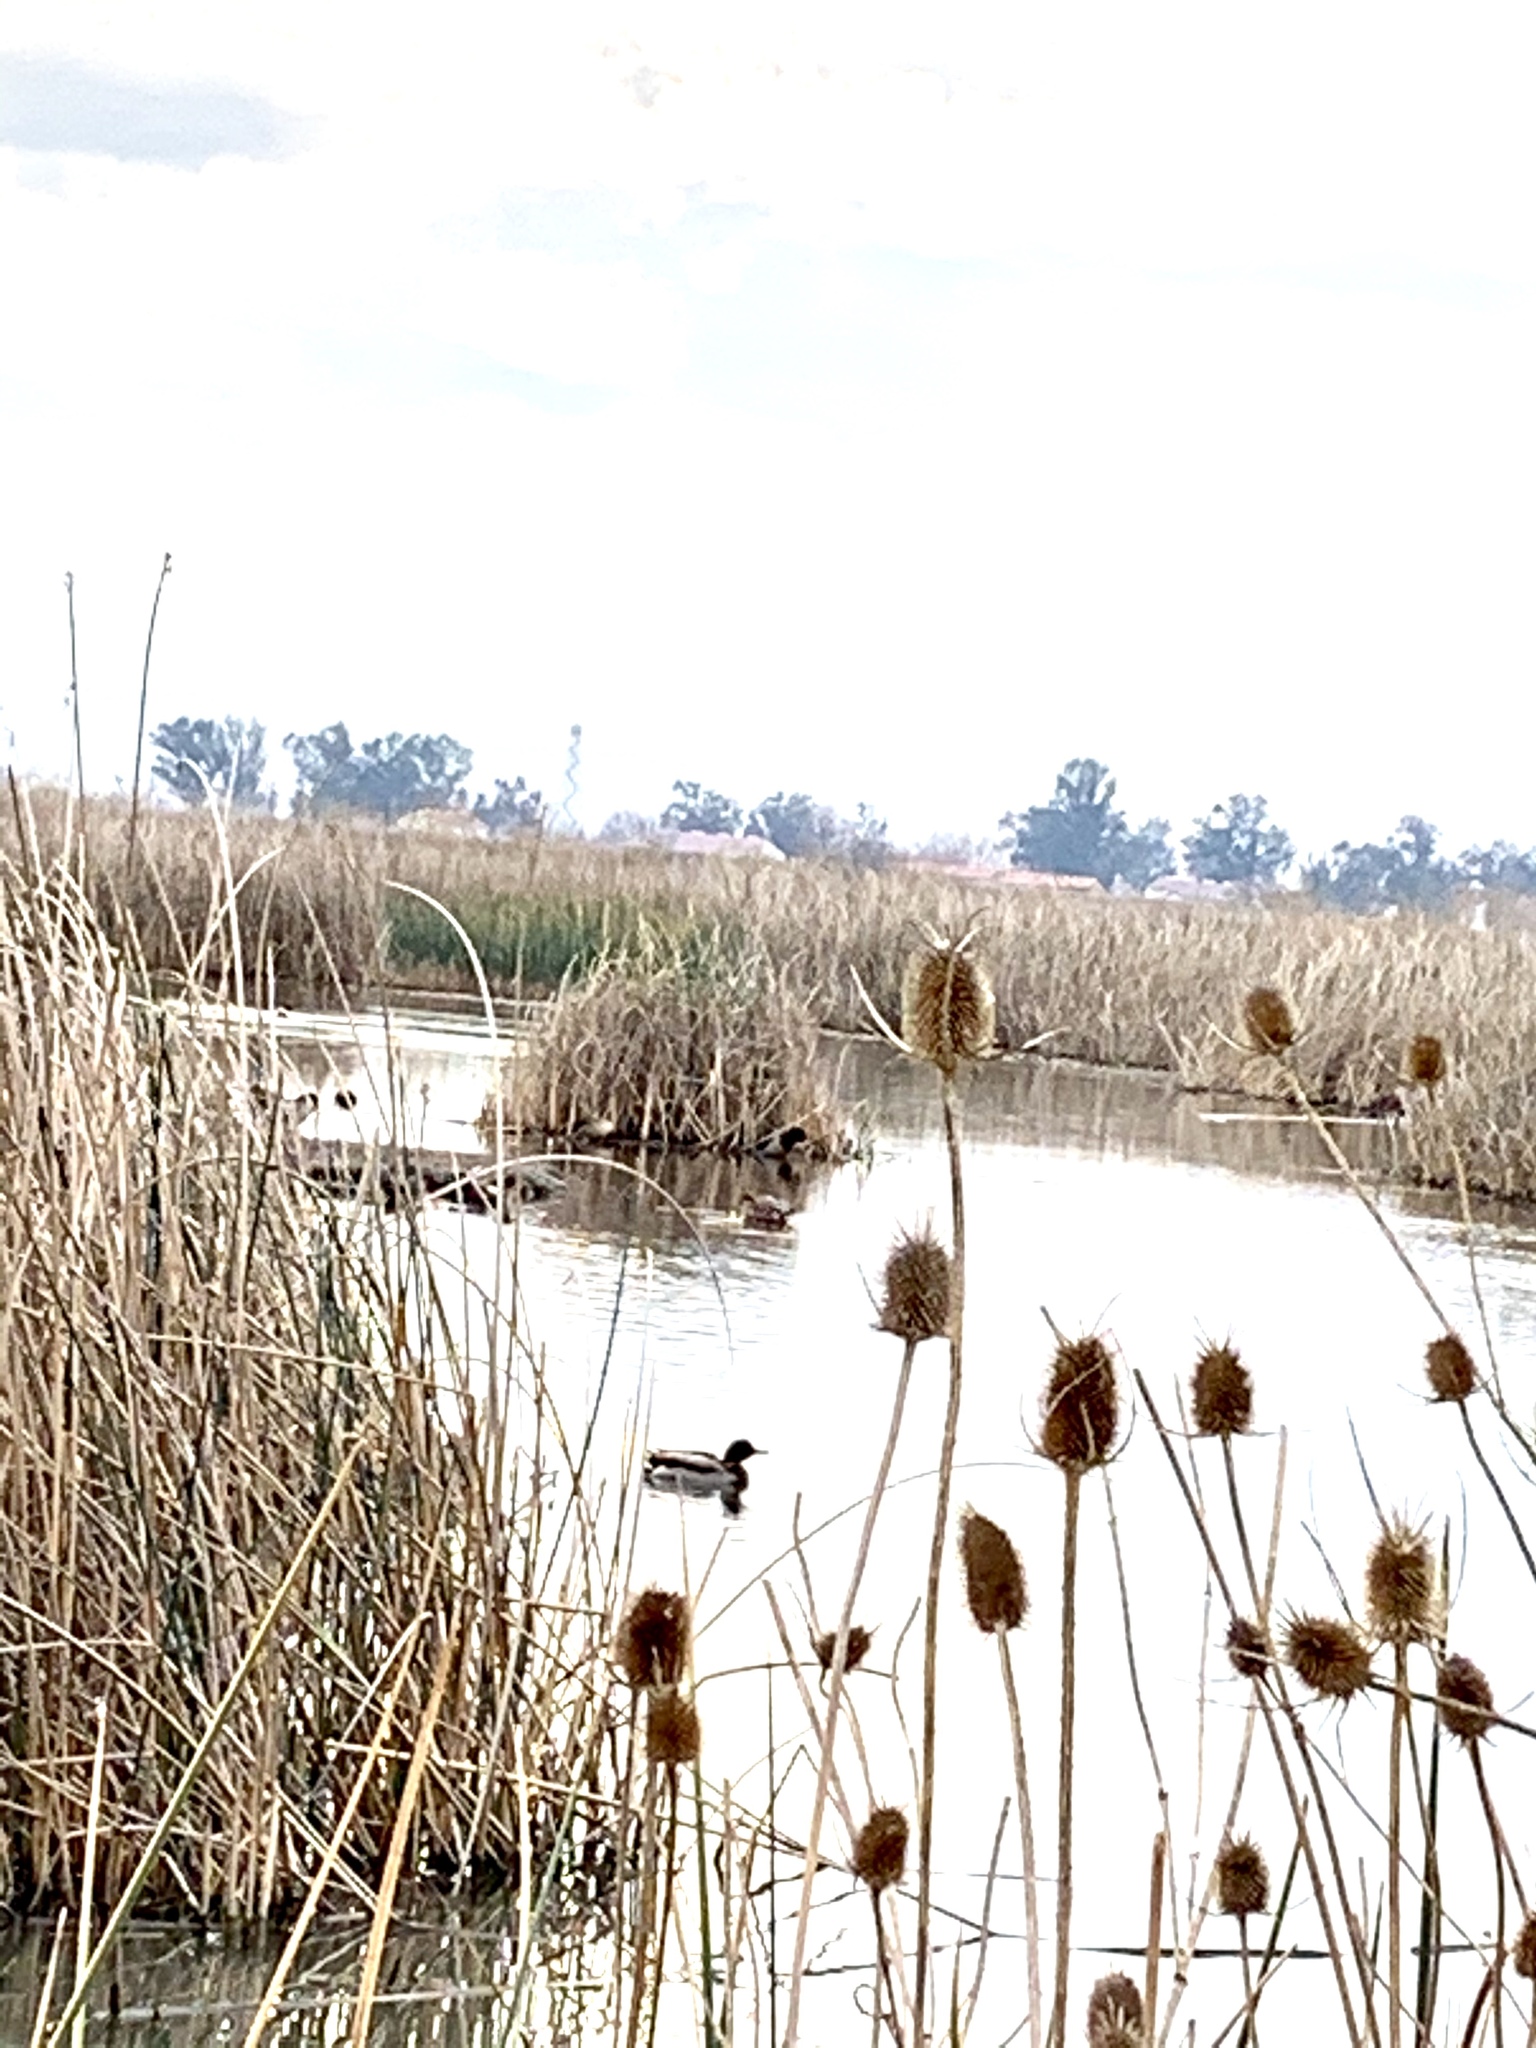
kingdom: Animalia
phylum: Chordata
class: Aves
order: Anseriformes
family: Anatidae
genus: Anas
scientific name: Anas platyrhynchos
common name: Mallard
